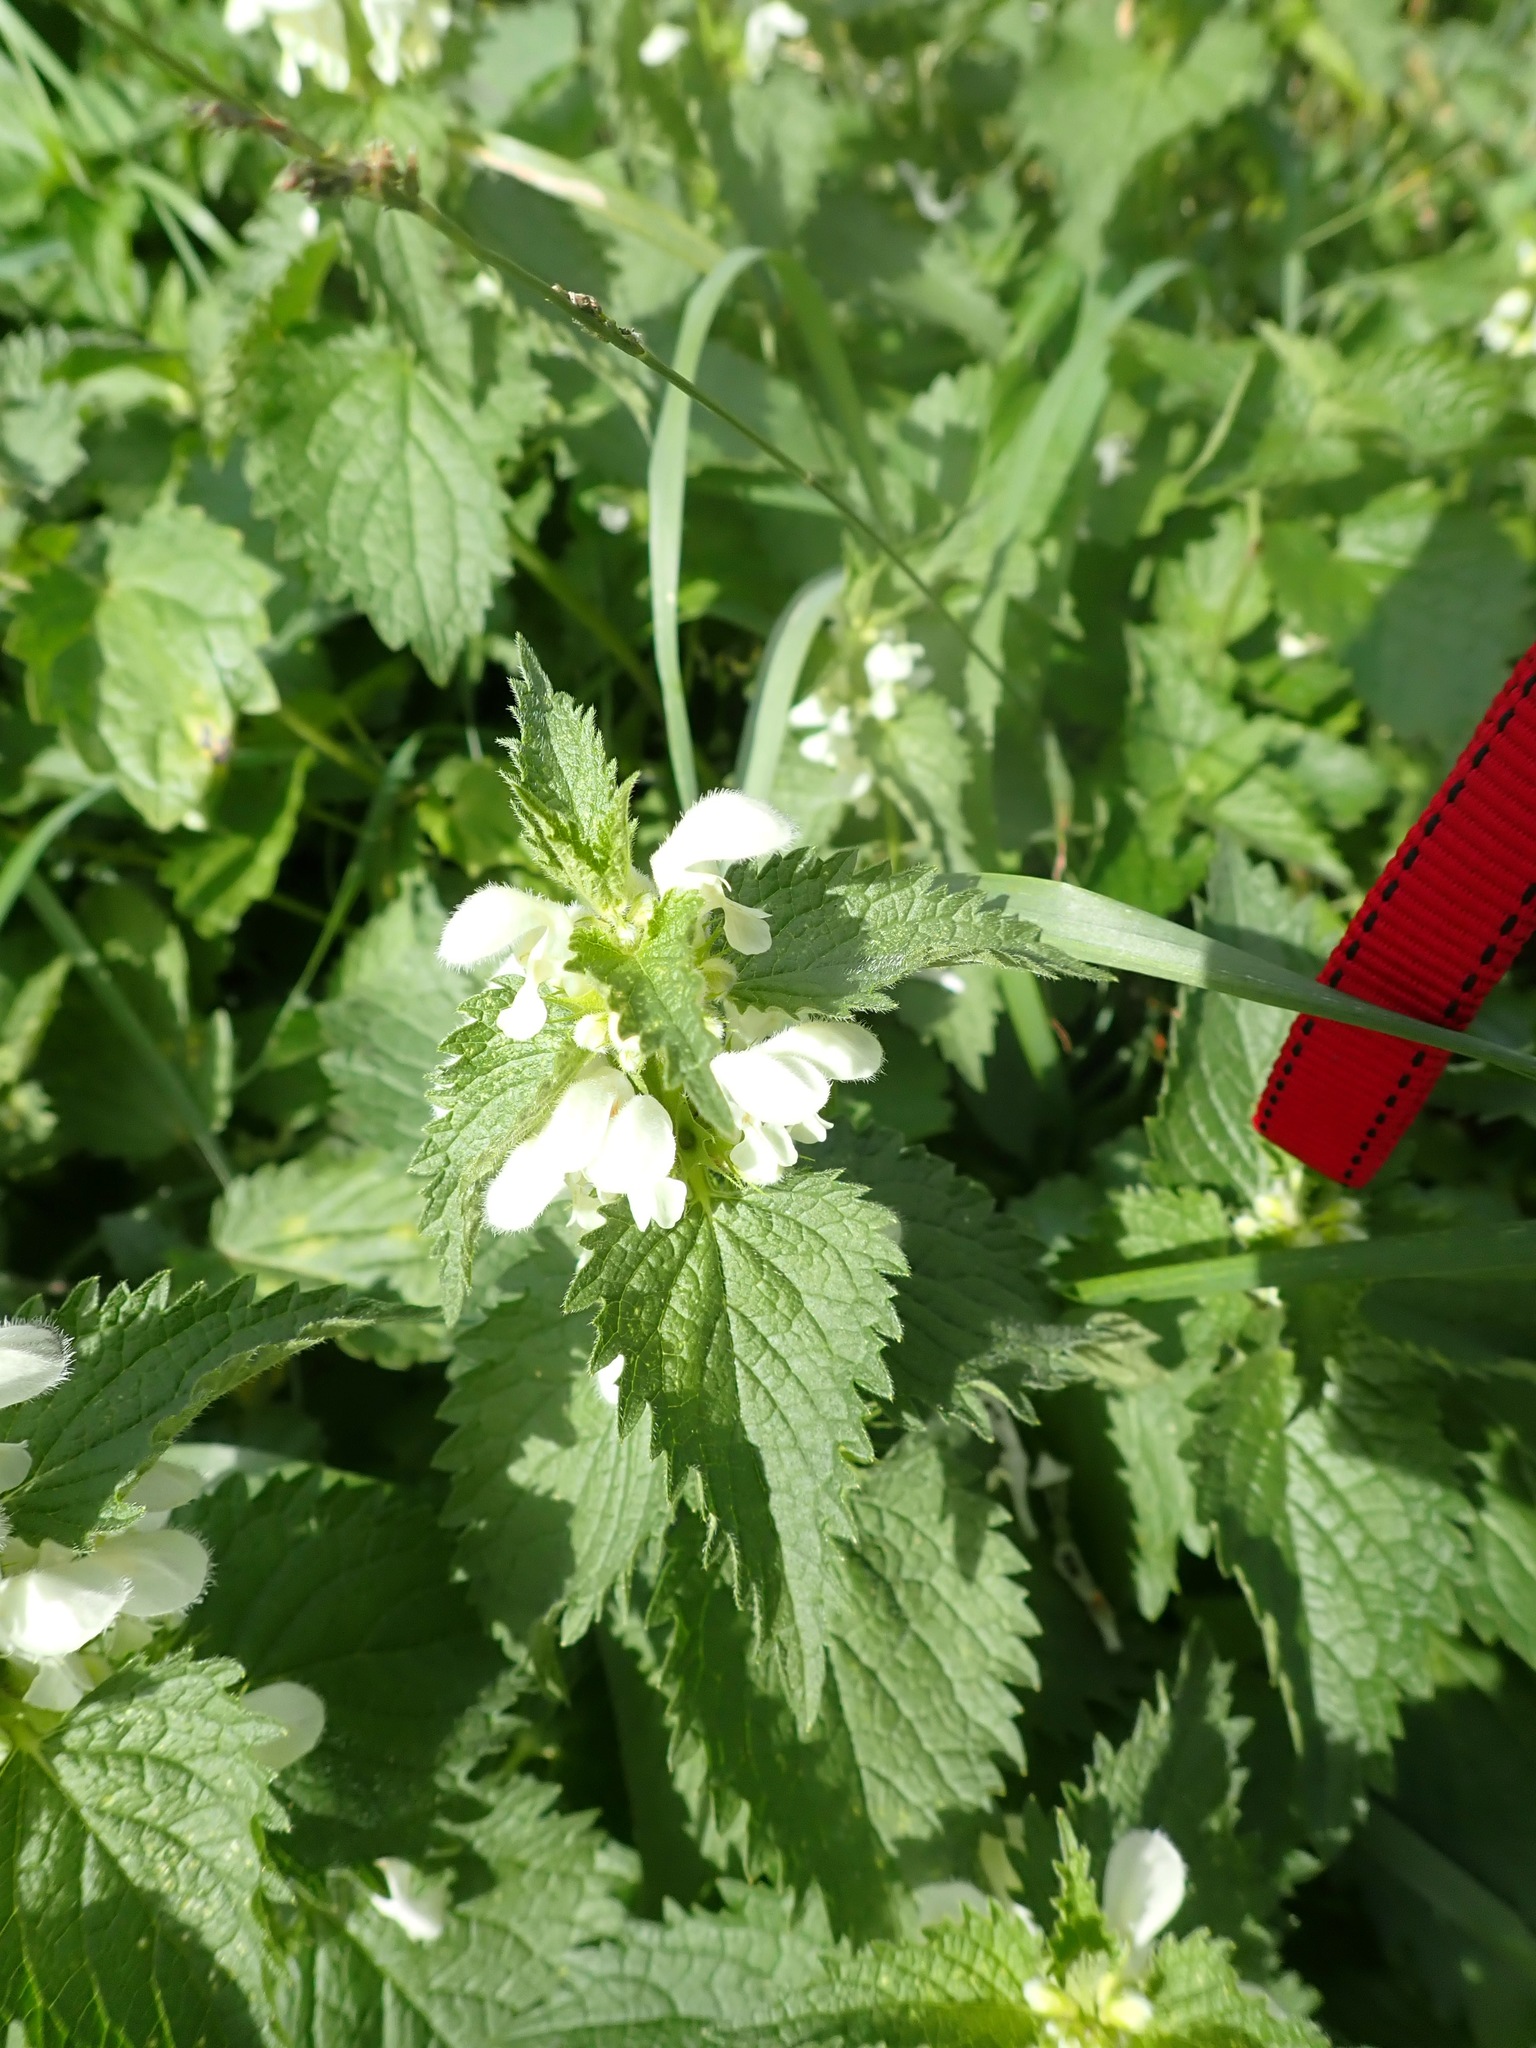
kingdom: Plantae
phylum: Tracheophyta
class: Magnoliopsida
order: Lamiales
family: Lamiaceae
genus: Lamium
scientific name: Lamium album
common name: White dead-nettle
